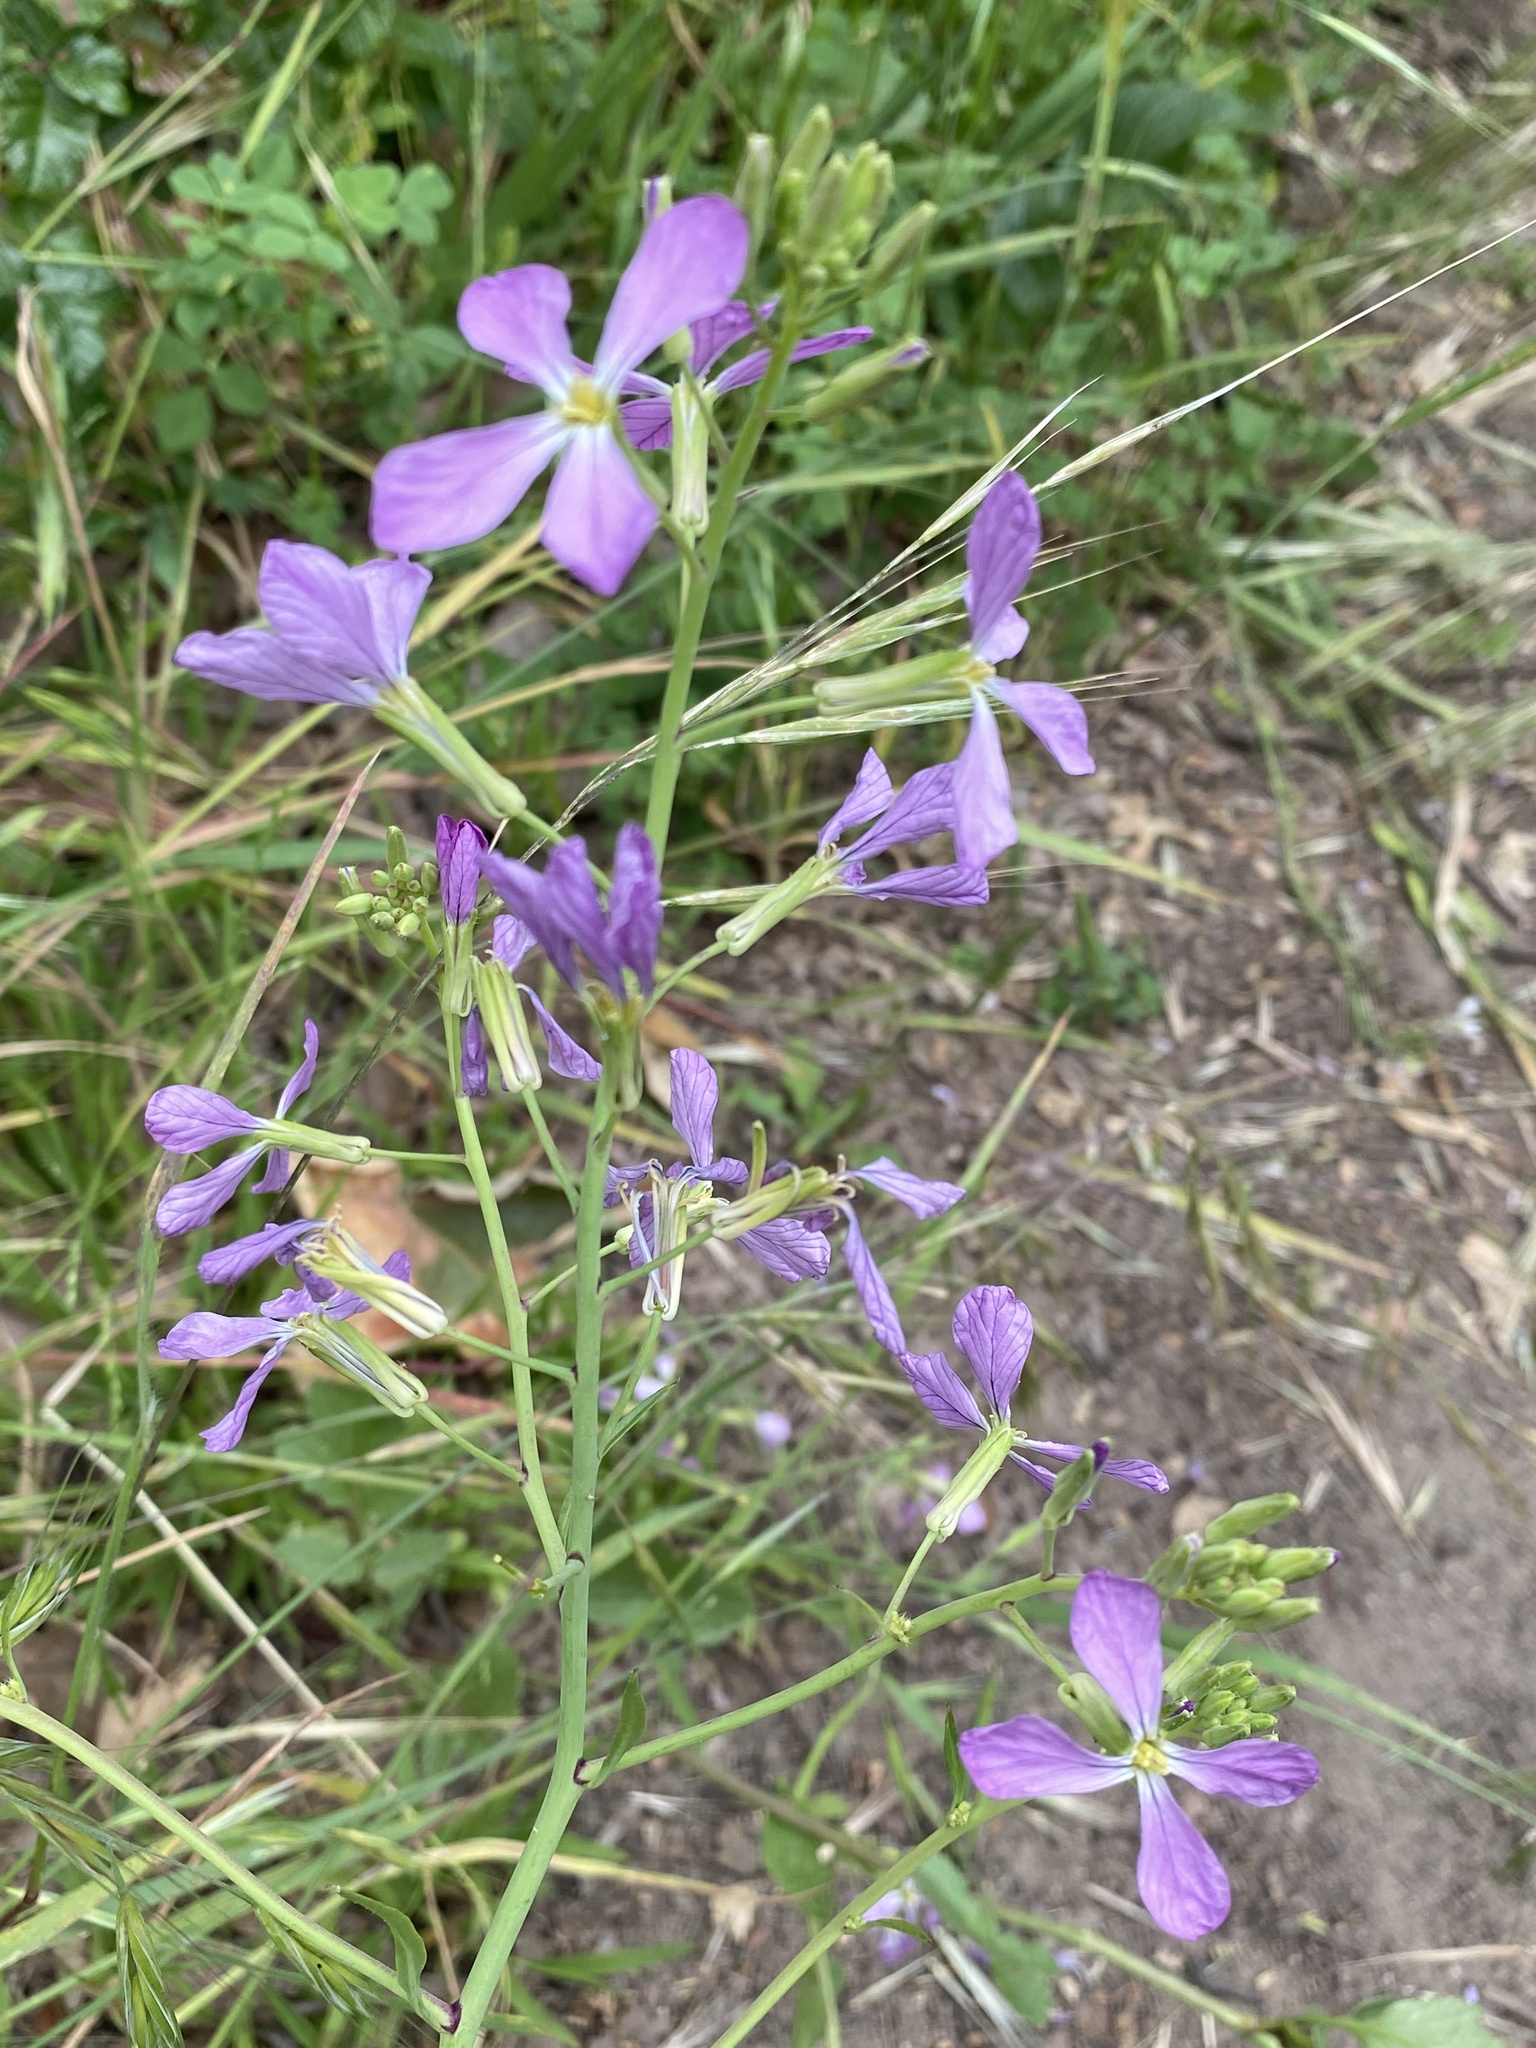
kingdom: Plantae
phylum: Tracheophyta
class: Magnoliopsida
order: Brassicales
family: Brassicaceae
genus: Raphanus
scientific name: Raphanus sativus
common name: Cultivated radish
